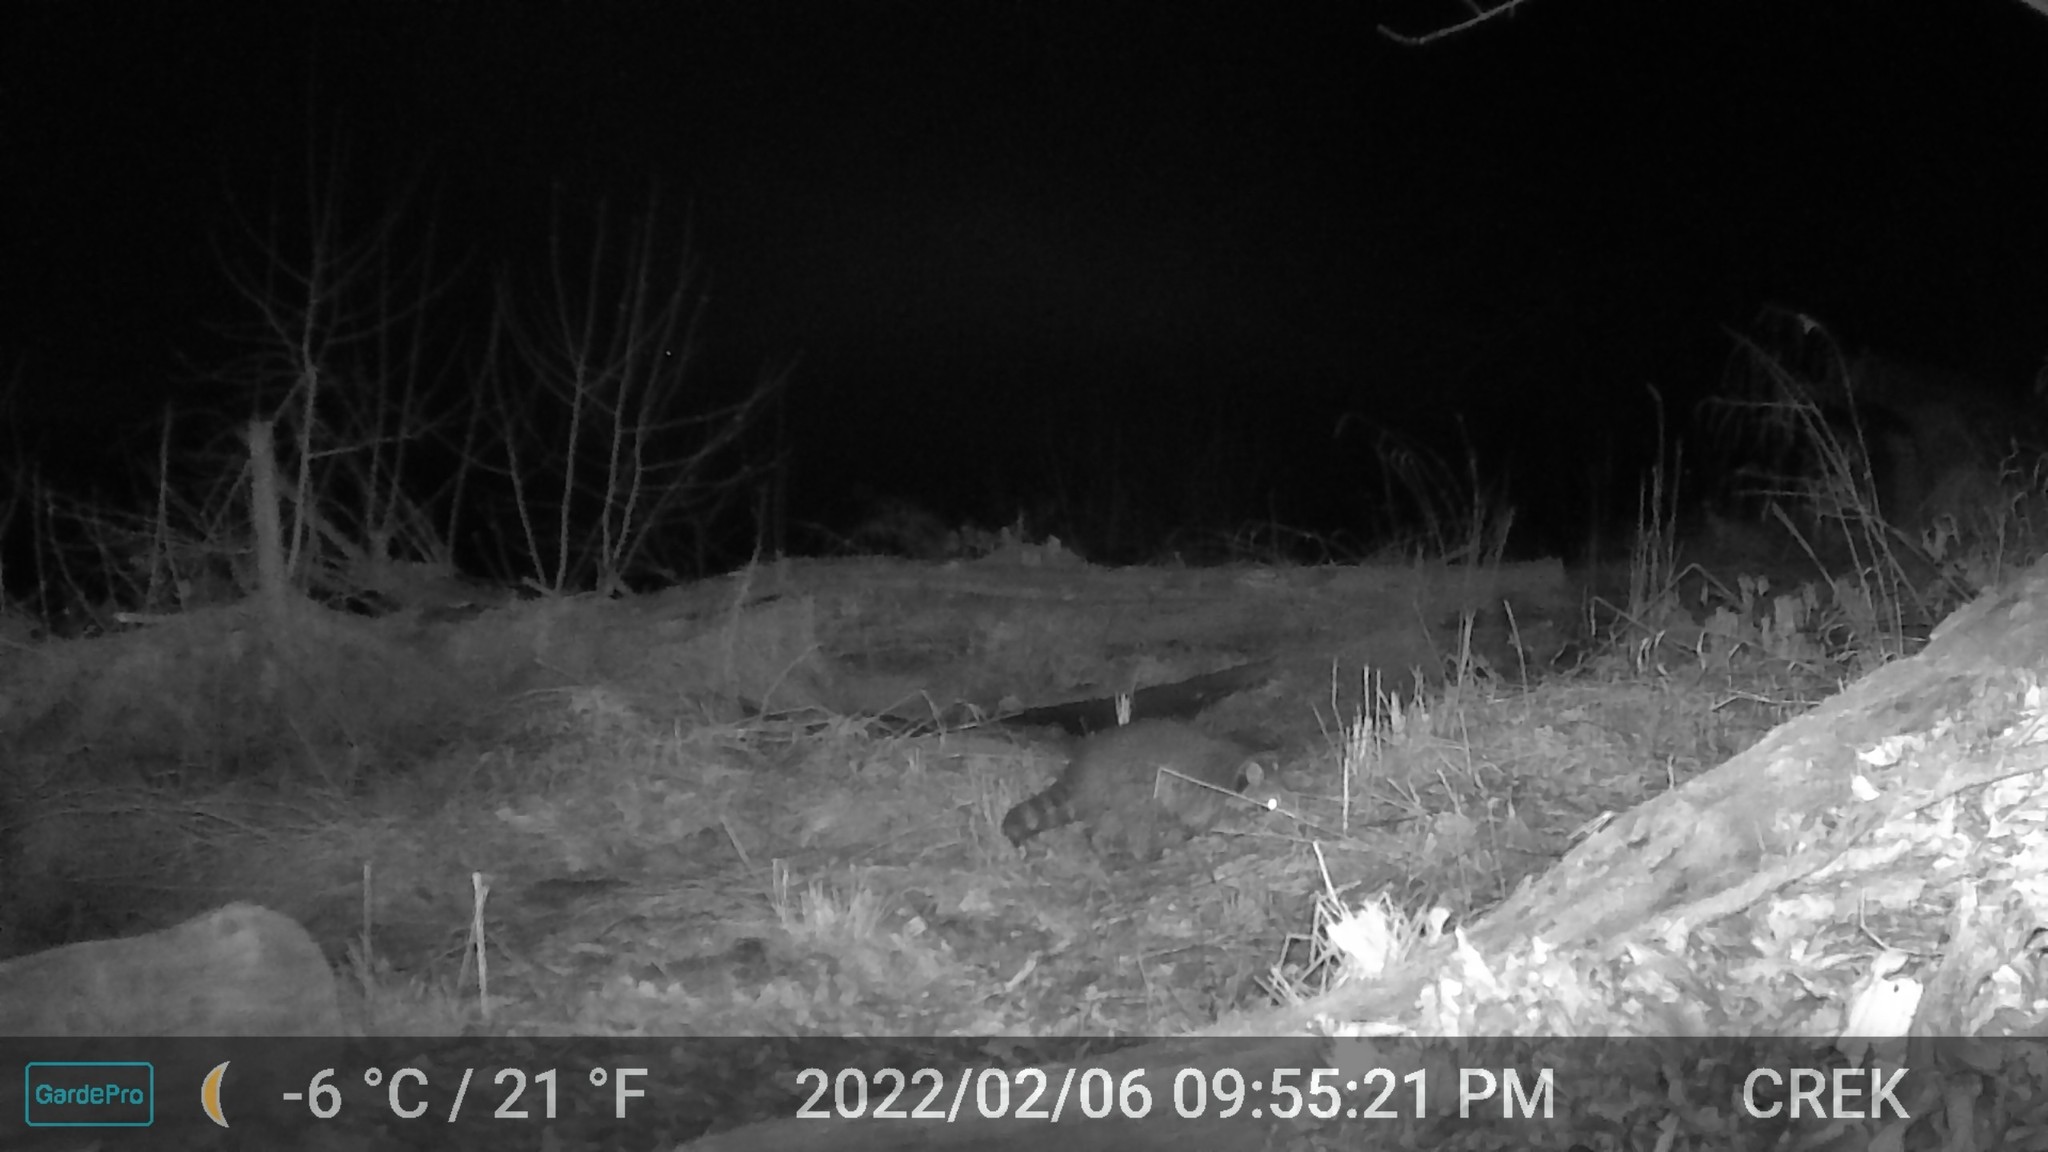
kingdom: Animalia
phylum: Chordata
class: Mammalia
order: Carnivora
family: Procyonidae
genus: Procyon
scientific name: Procyon lotor
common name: Raccoon
